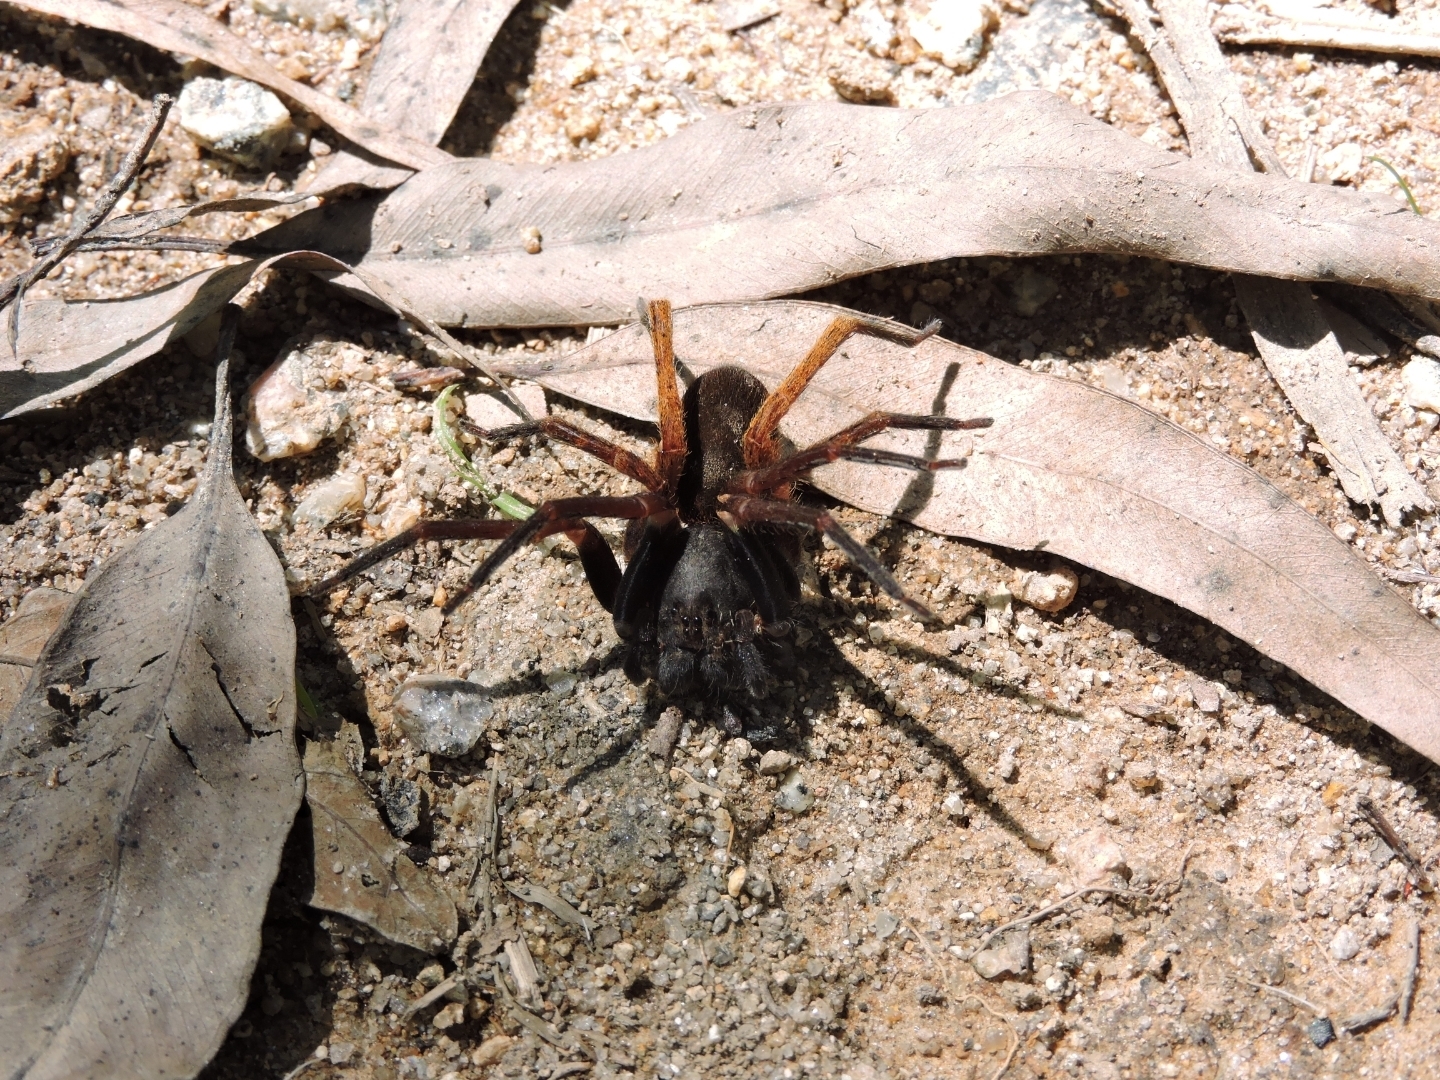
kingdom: Animalia
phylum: Arthropoda
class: Arachnida
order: Araneae
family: Ctenidae
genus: Ctenus
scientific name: Ctenus medius
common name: Wandering spiders
